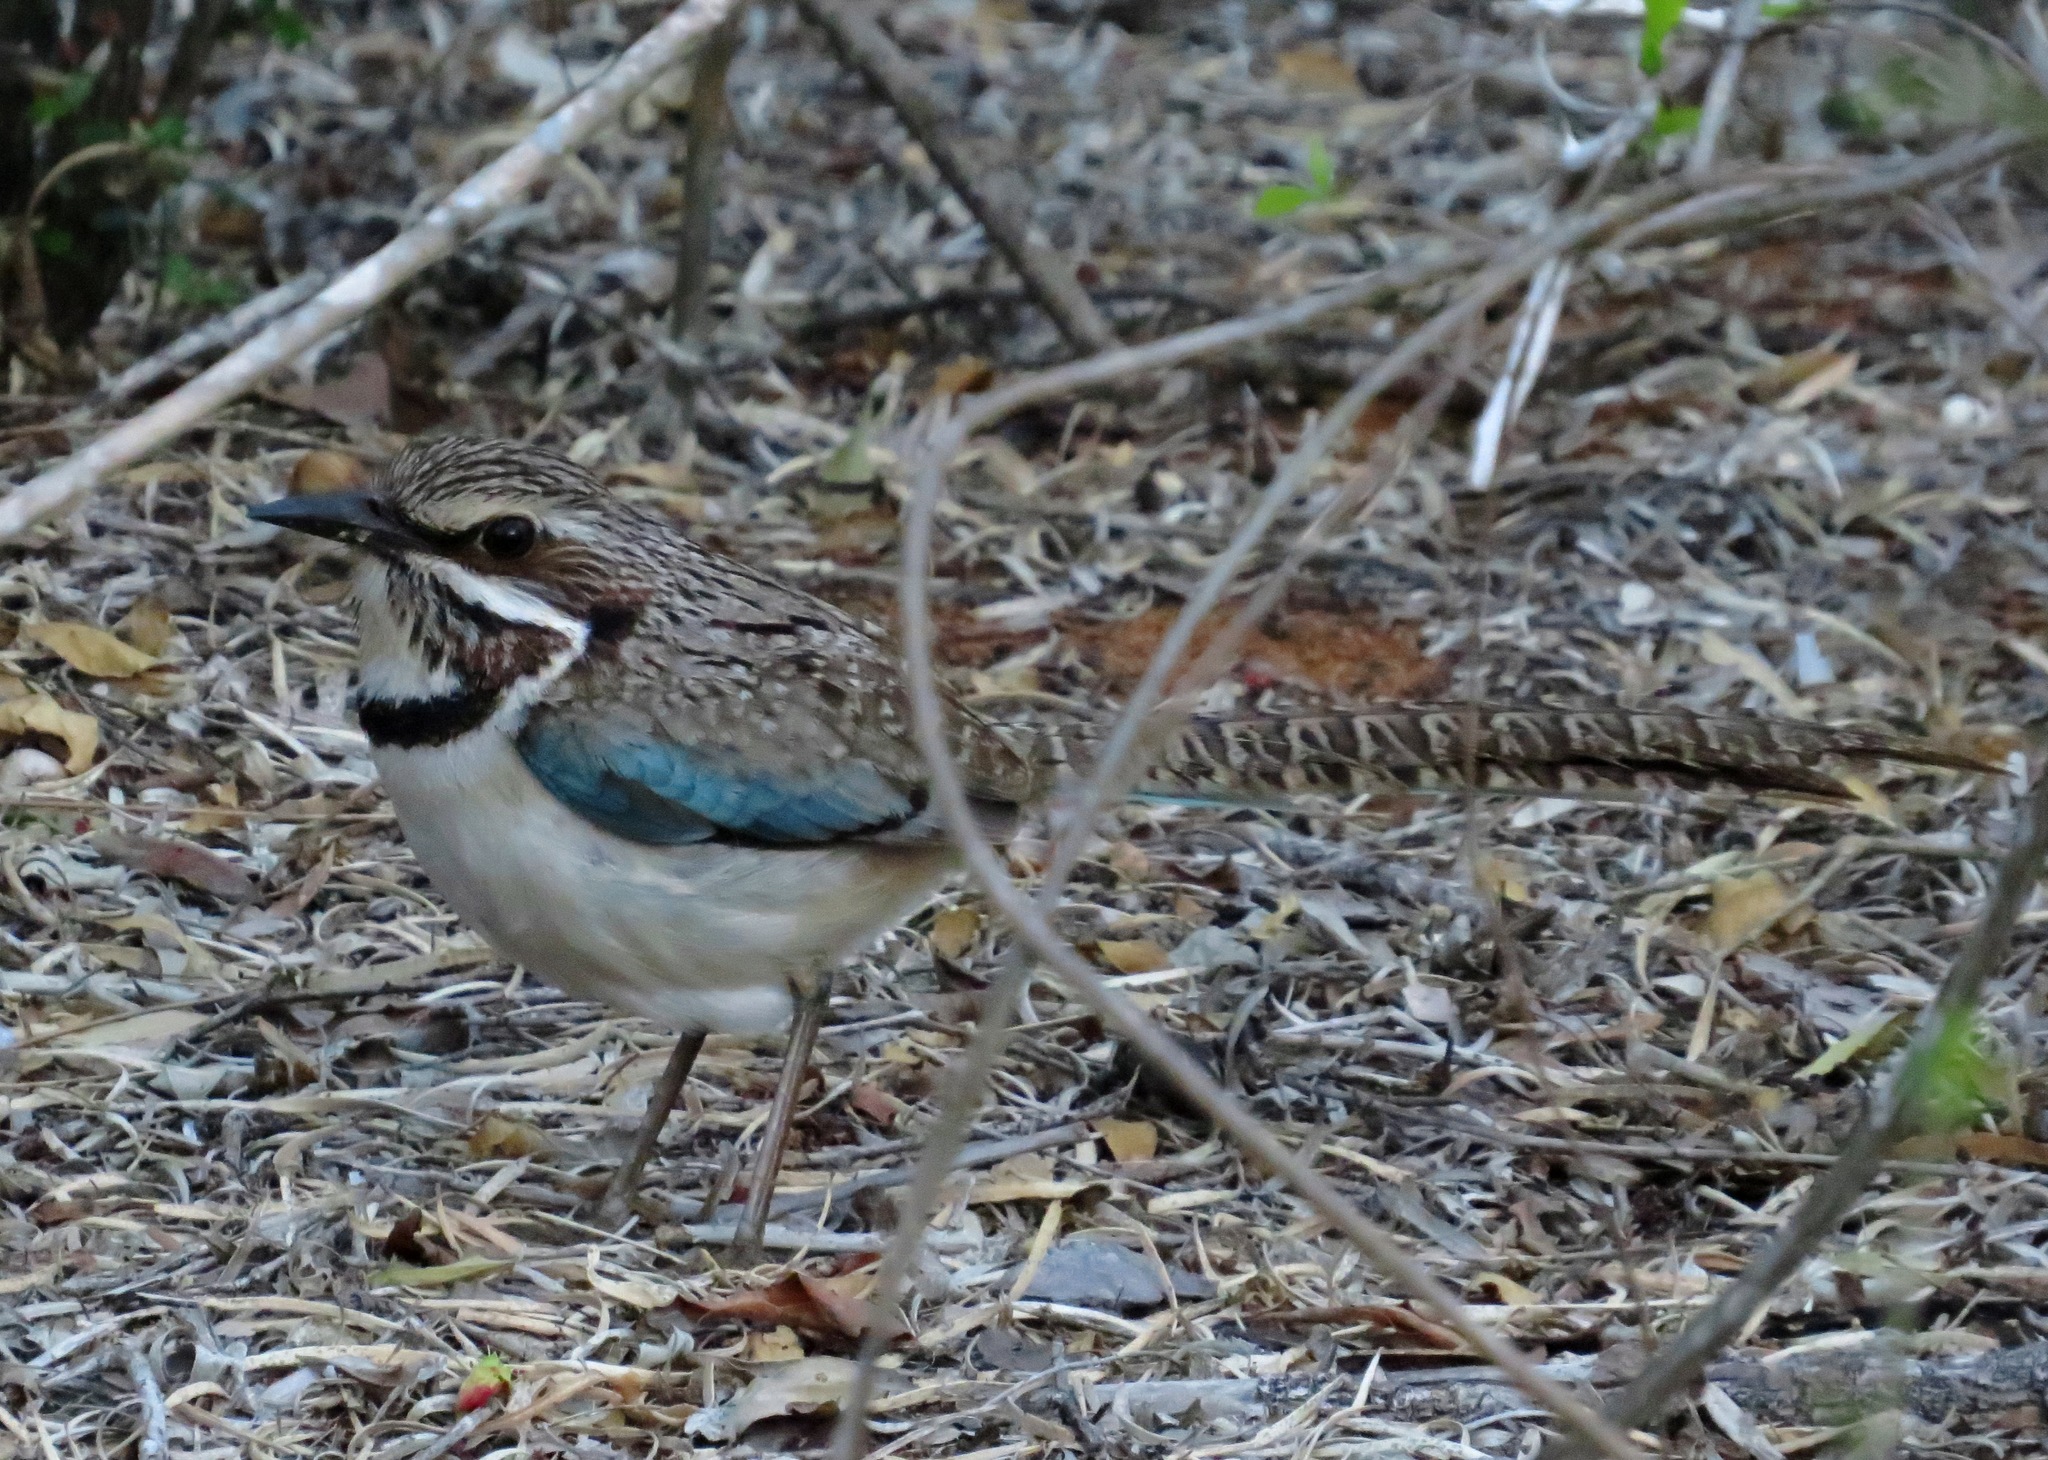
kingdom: Animalia
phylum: Chordata
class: Aves
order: Coraciiformes
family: Brachypteraciidae
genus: Uratelornis
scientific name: Uratelornis chimaera
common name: Long-tailed ground roller
